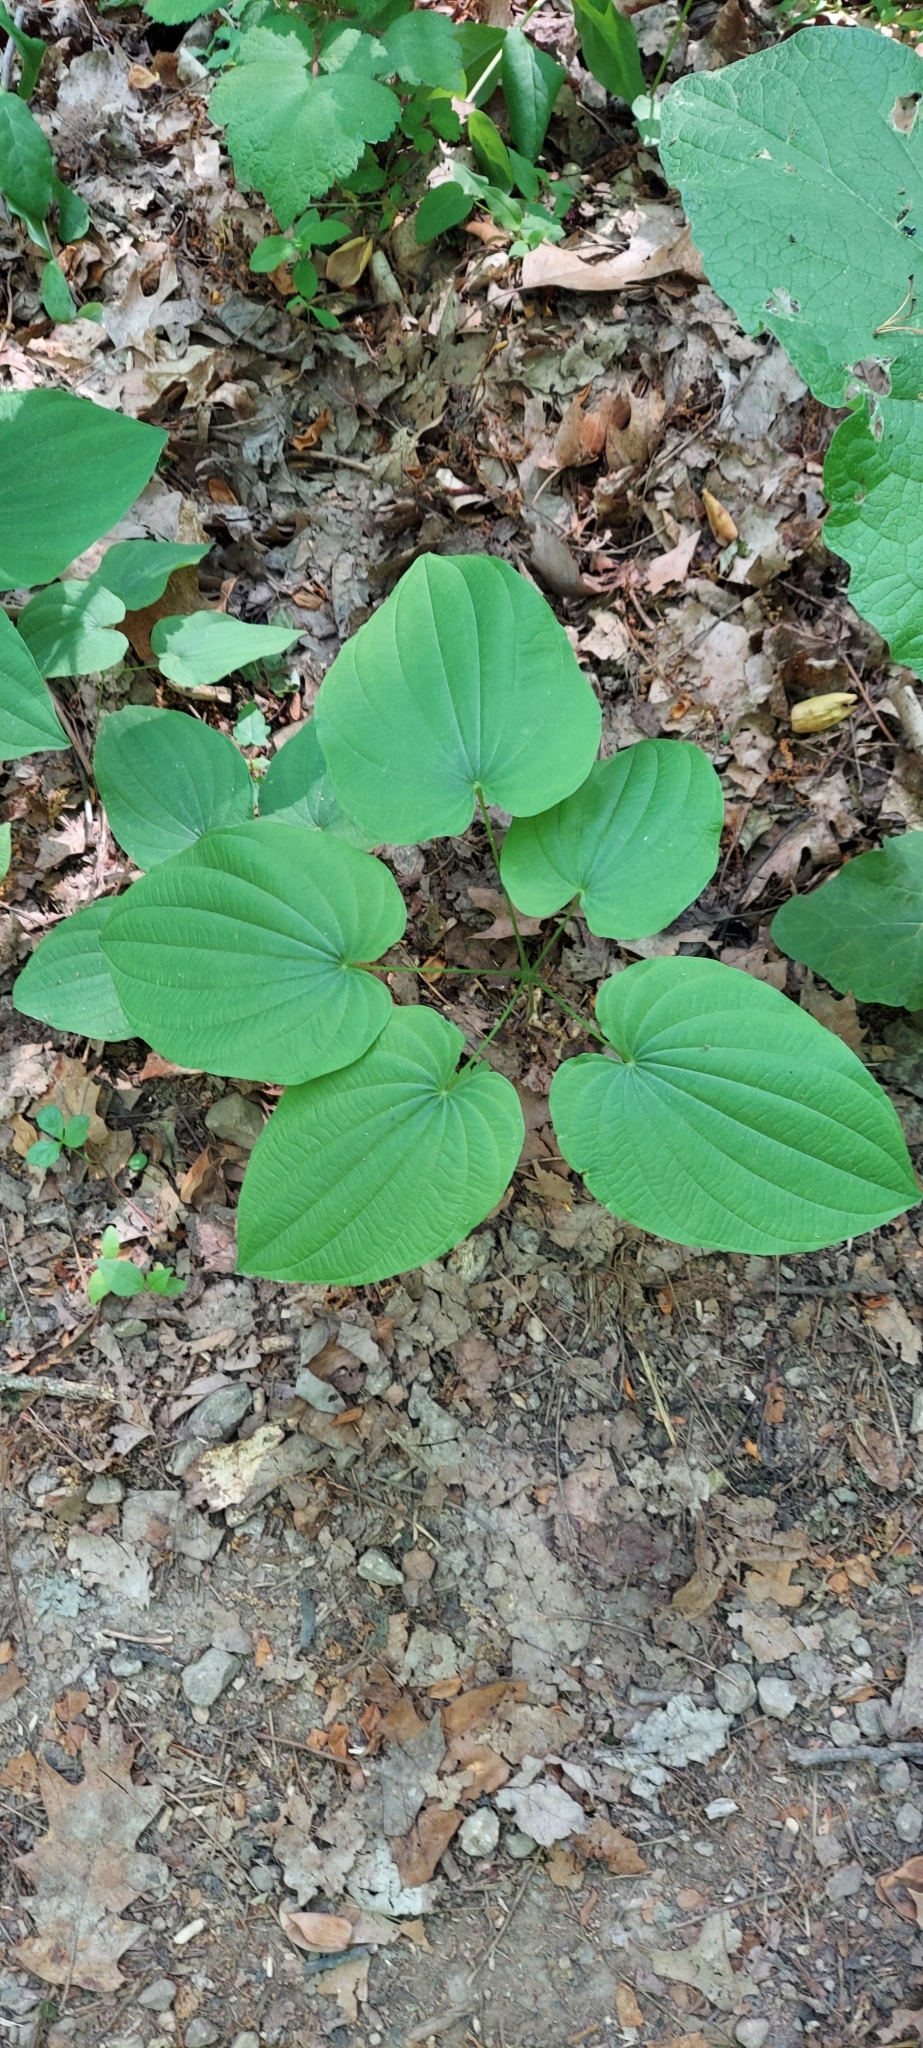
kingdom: Plantae
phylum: Tracheophyta
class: Liliopsida
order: Dioscoreales
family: Dioscoreaceae
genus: Dioscorea
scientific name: Dioscorea villosa
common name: Wild yam
